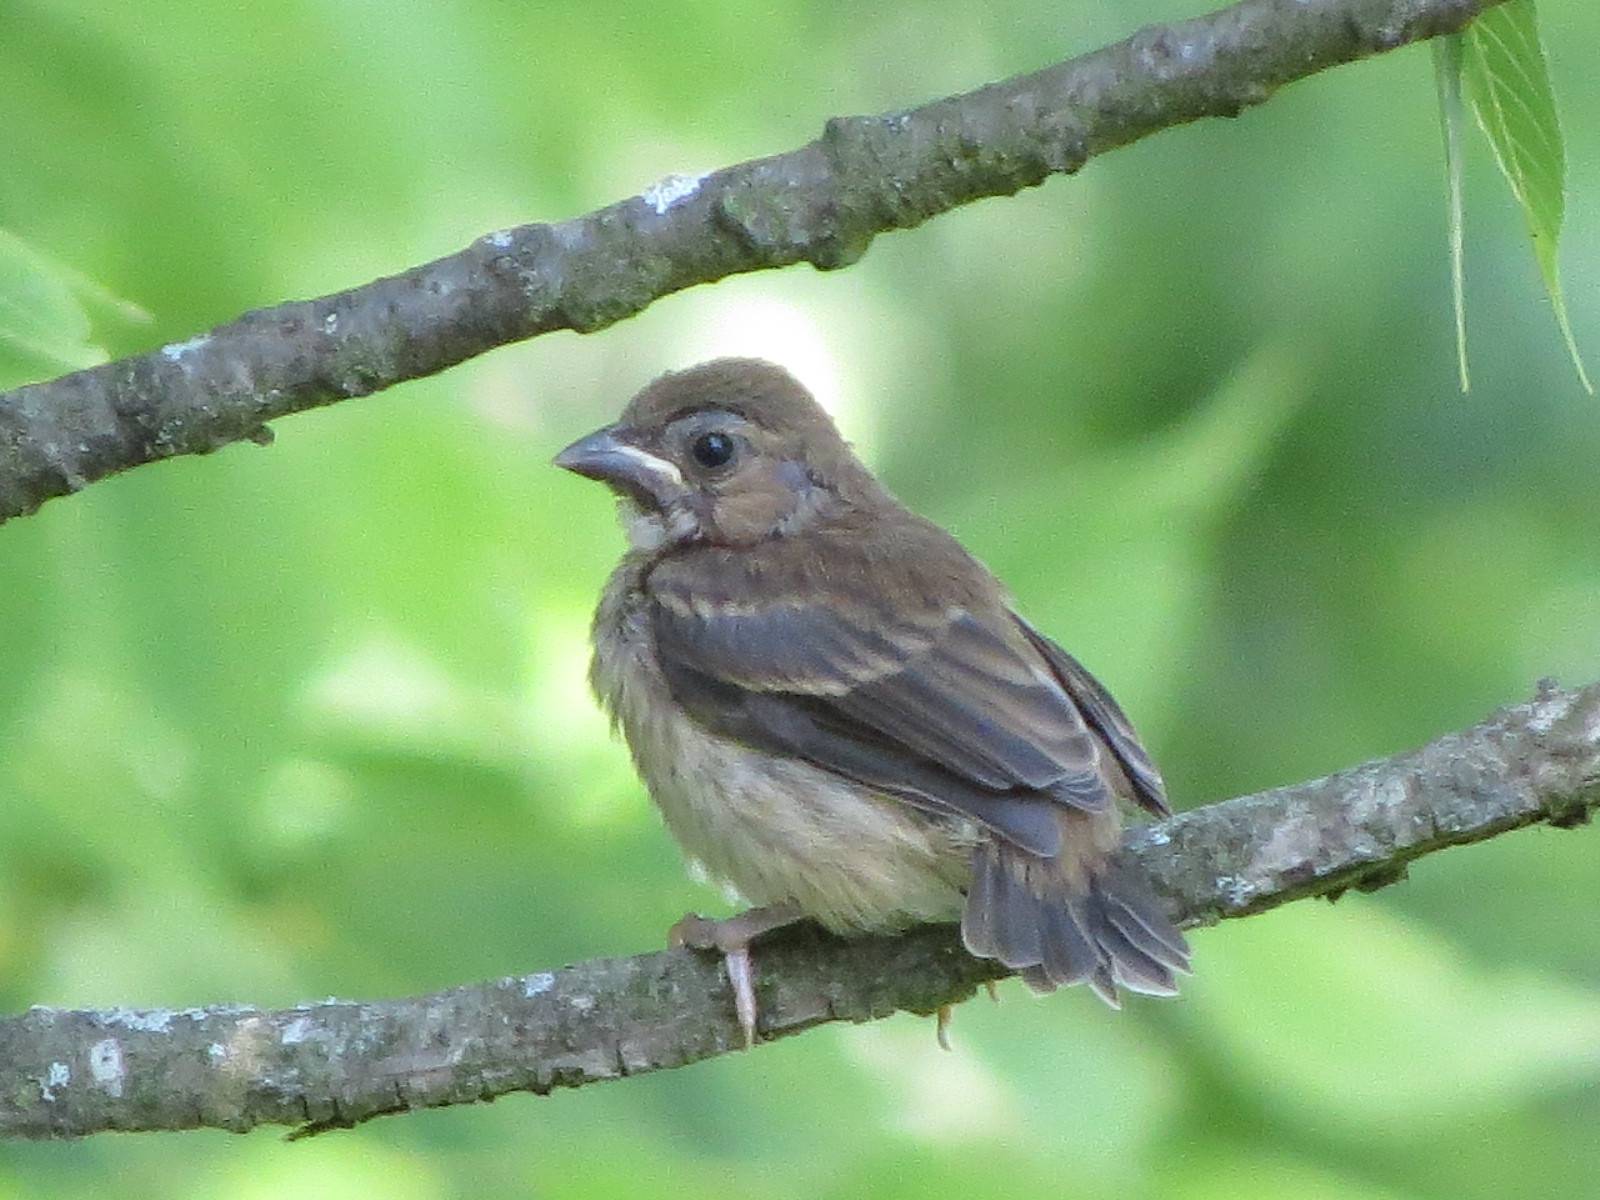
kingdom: Animalia
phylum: Chordata
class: Aves
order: Passeriformes
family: Cardinalidae
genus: Passerina
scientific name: Passerina cyanea
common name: Indigo bunting
